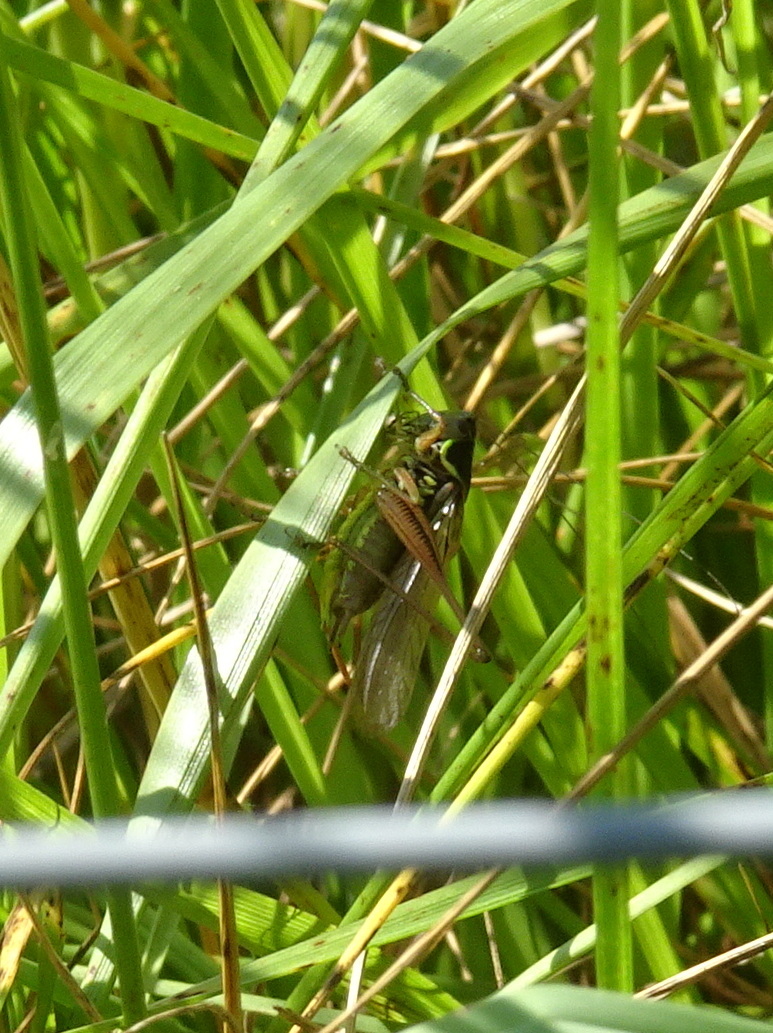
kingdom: Animalia
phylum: Arthropoda
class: Insecta
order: Orthoptera
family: Tettigoniidae
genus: Roeseliana
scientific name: Roeseliana roeselii
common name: Roesel's bush cricket
